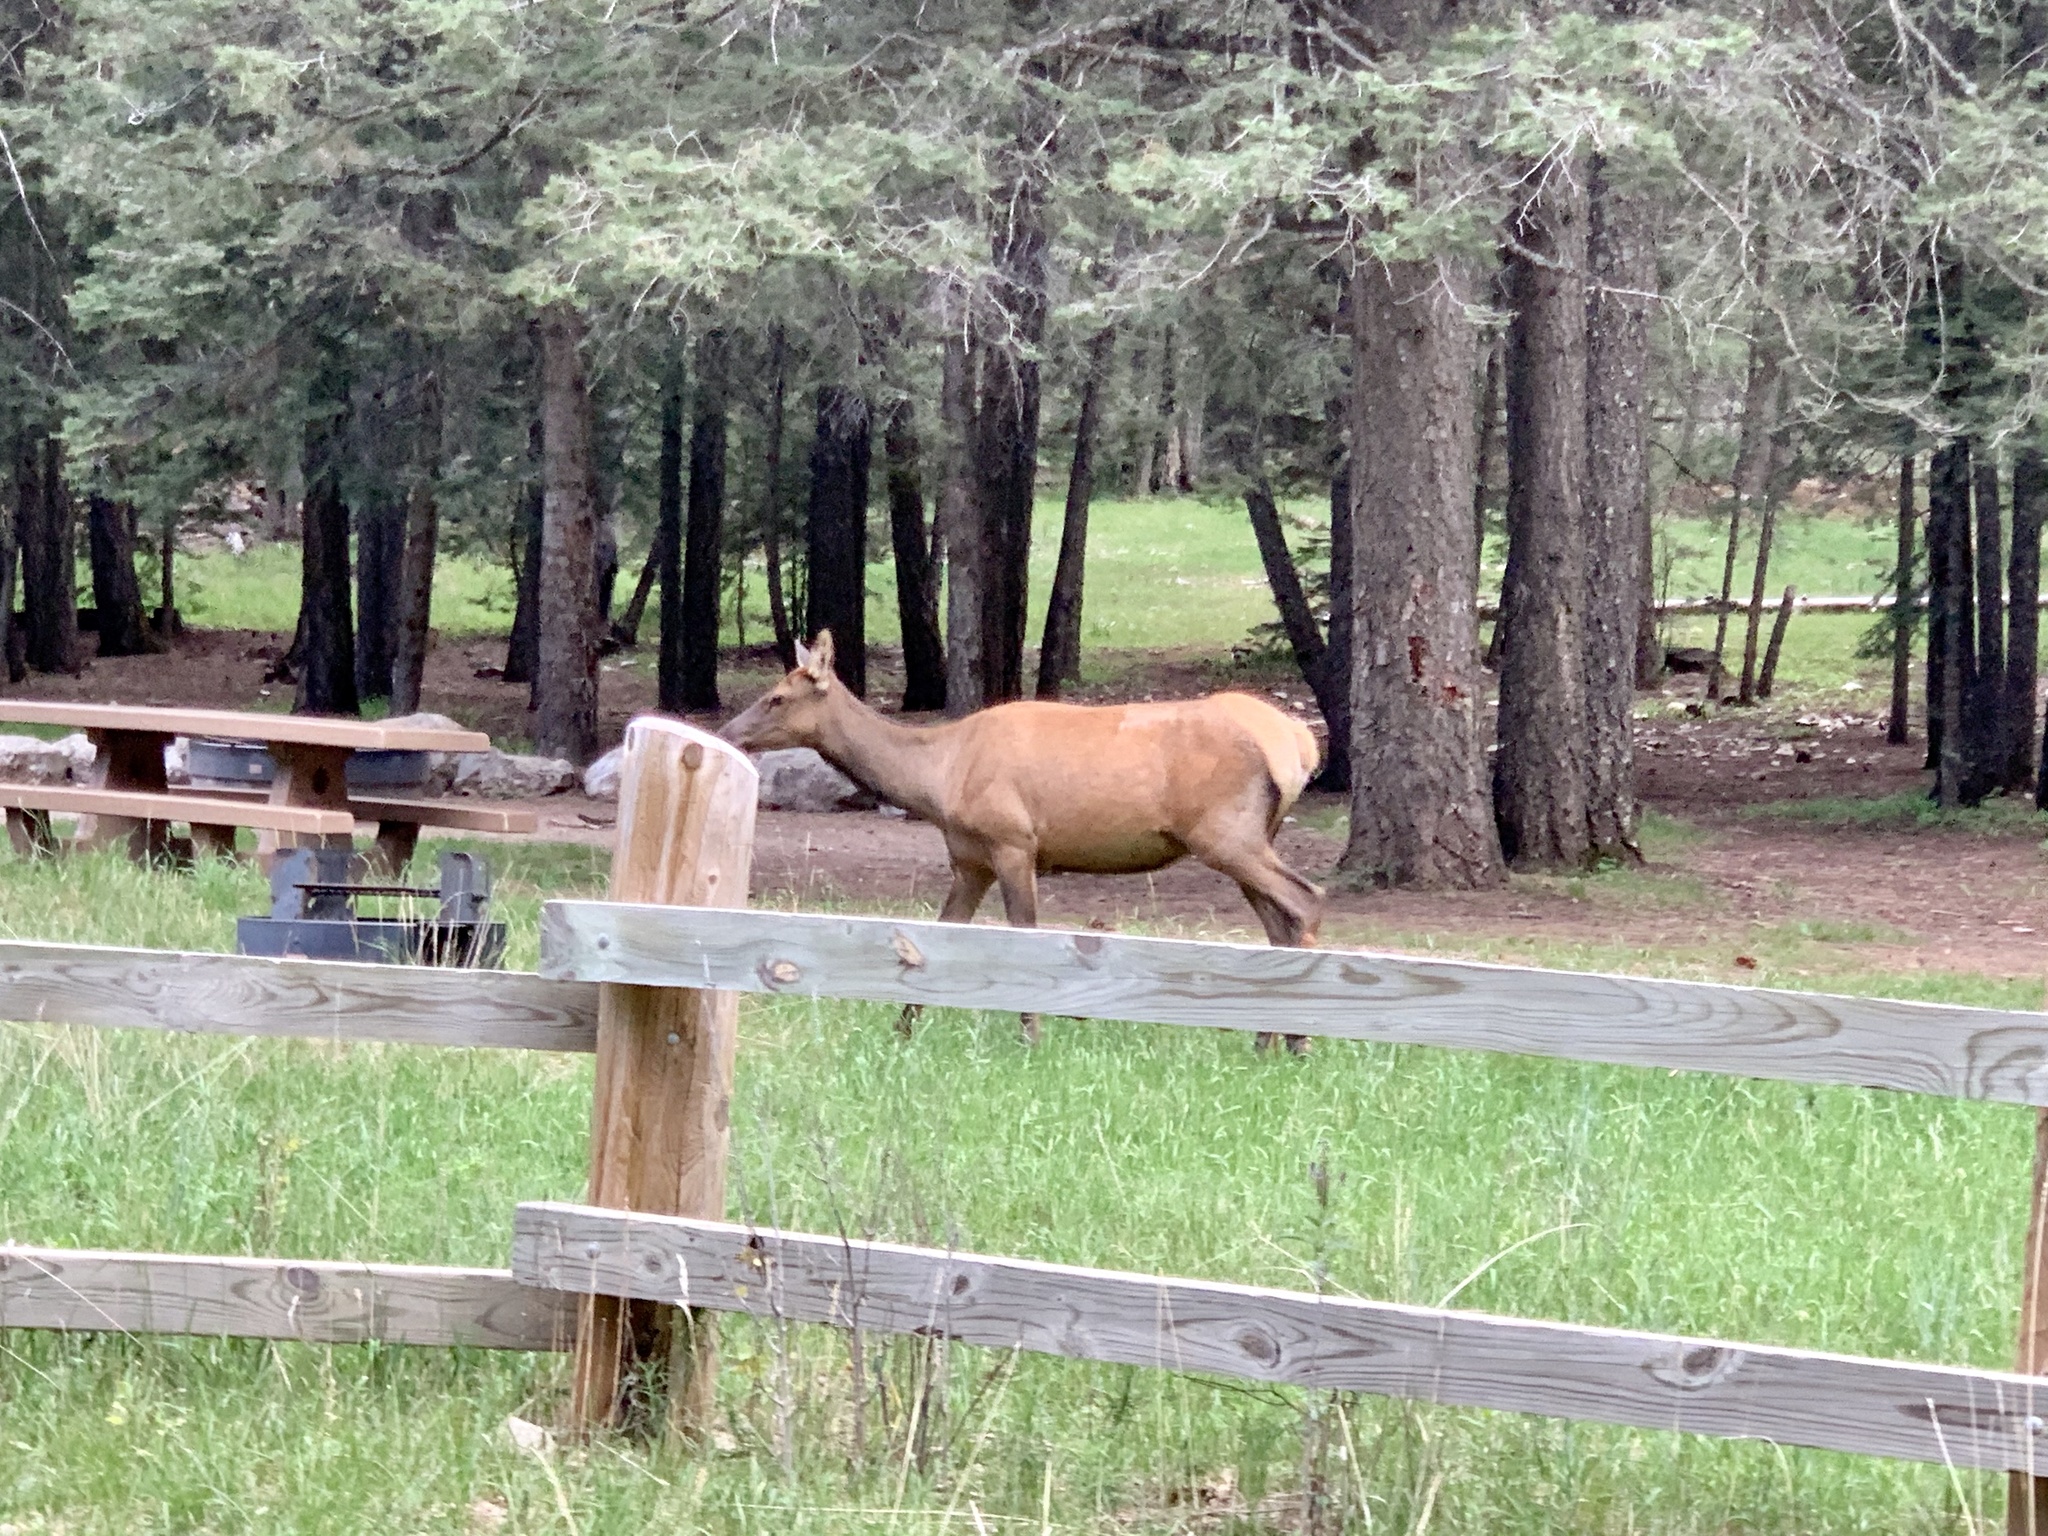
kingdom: Animalia
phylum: Chordata
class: Mammalia
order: Artiodactyla
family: Cervidae
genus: Cervus
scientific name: Cervus elaphus
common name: Red deer
